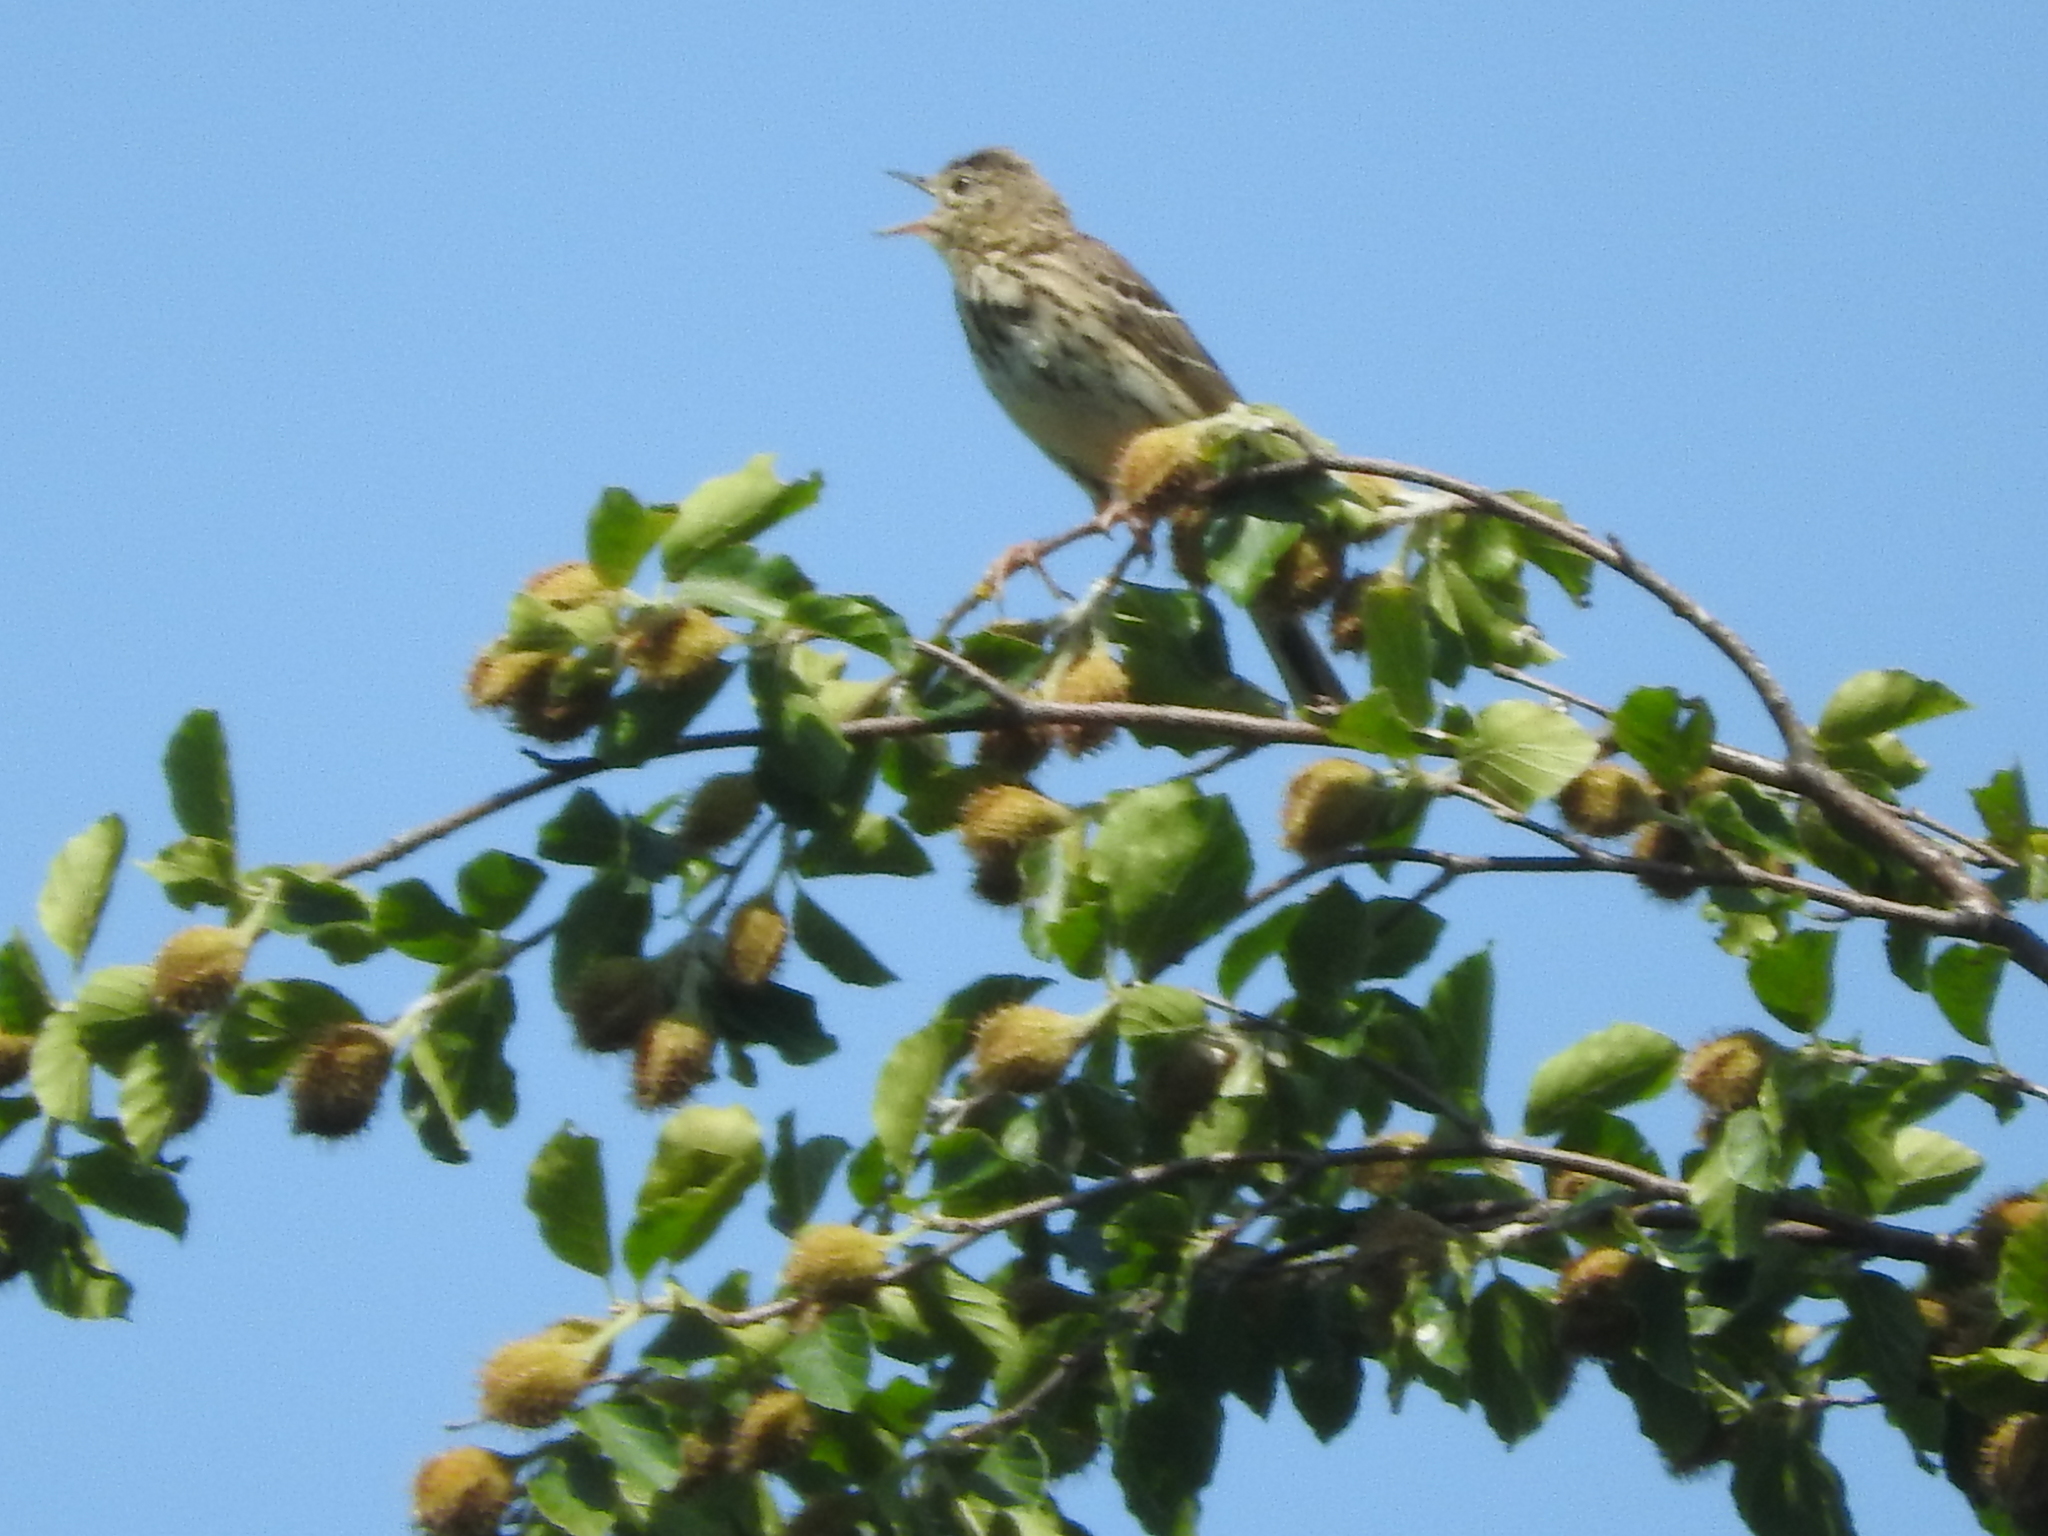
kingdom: Animalia
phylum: Chordata
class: Aves
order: Passeriformes
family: Motacillidae
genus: Anthus
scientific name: Anthus trivialis
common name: Tree pipit
